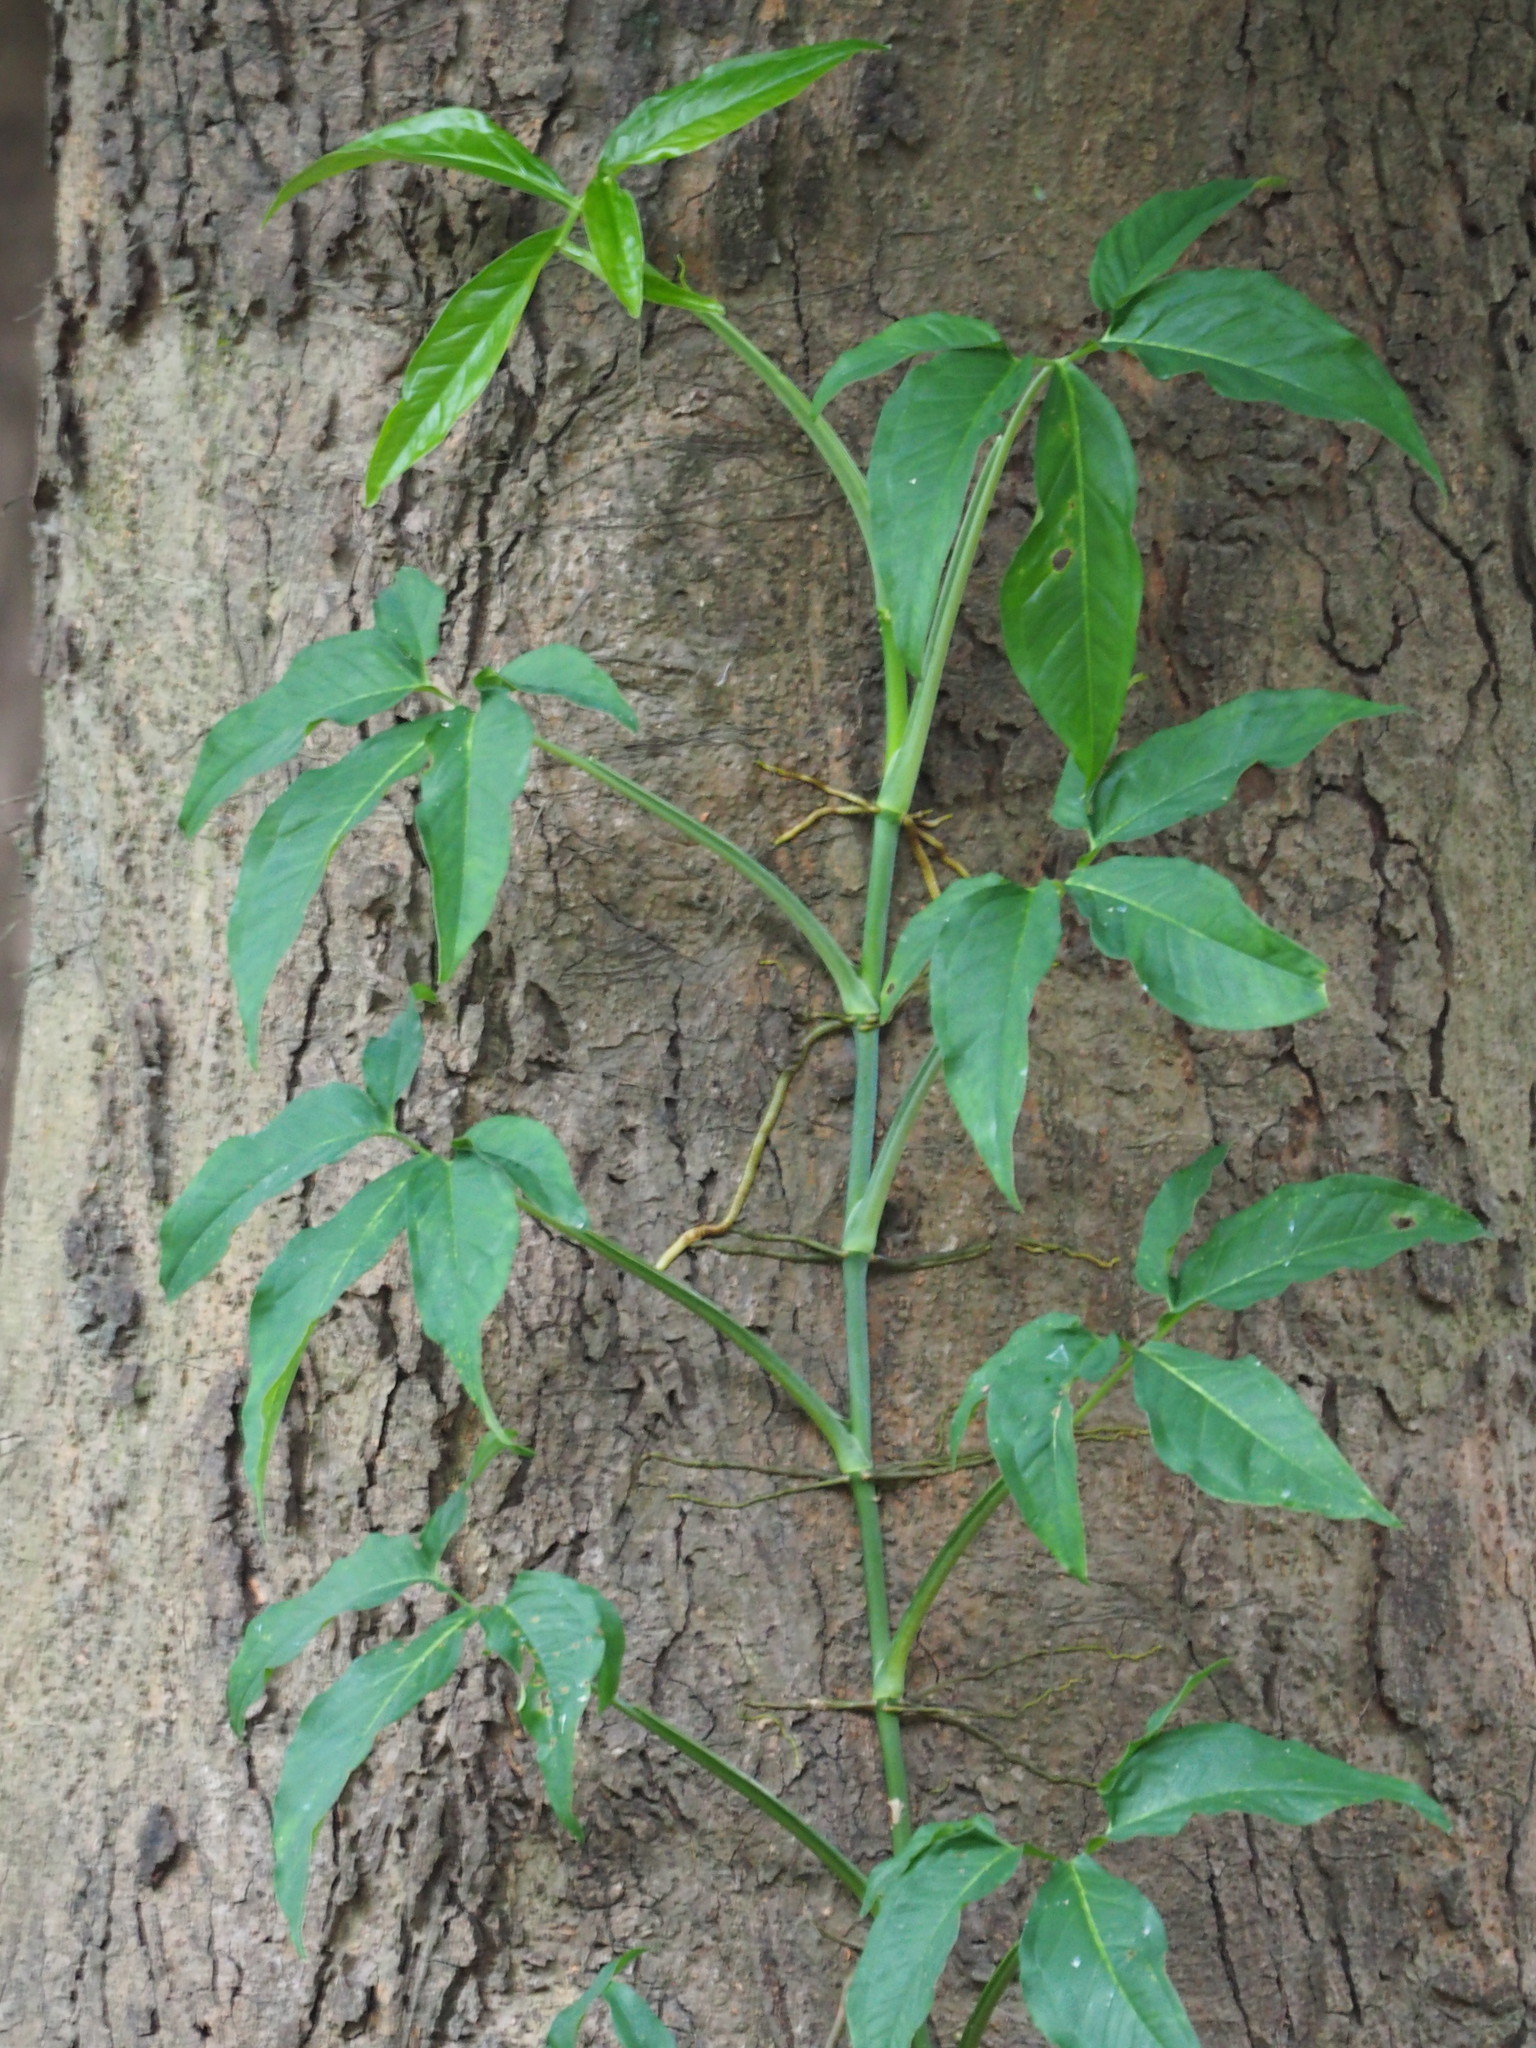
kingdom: Plantae
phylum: Tracheophyta
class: Liliopsida
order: Alismatales
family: Araceae
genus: Syngonium
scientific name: Syngonium angustatum
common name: Fivefingers
